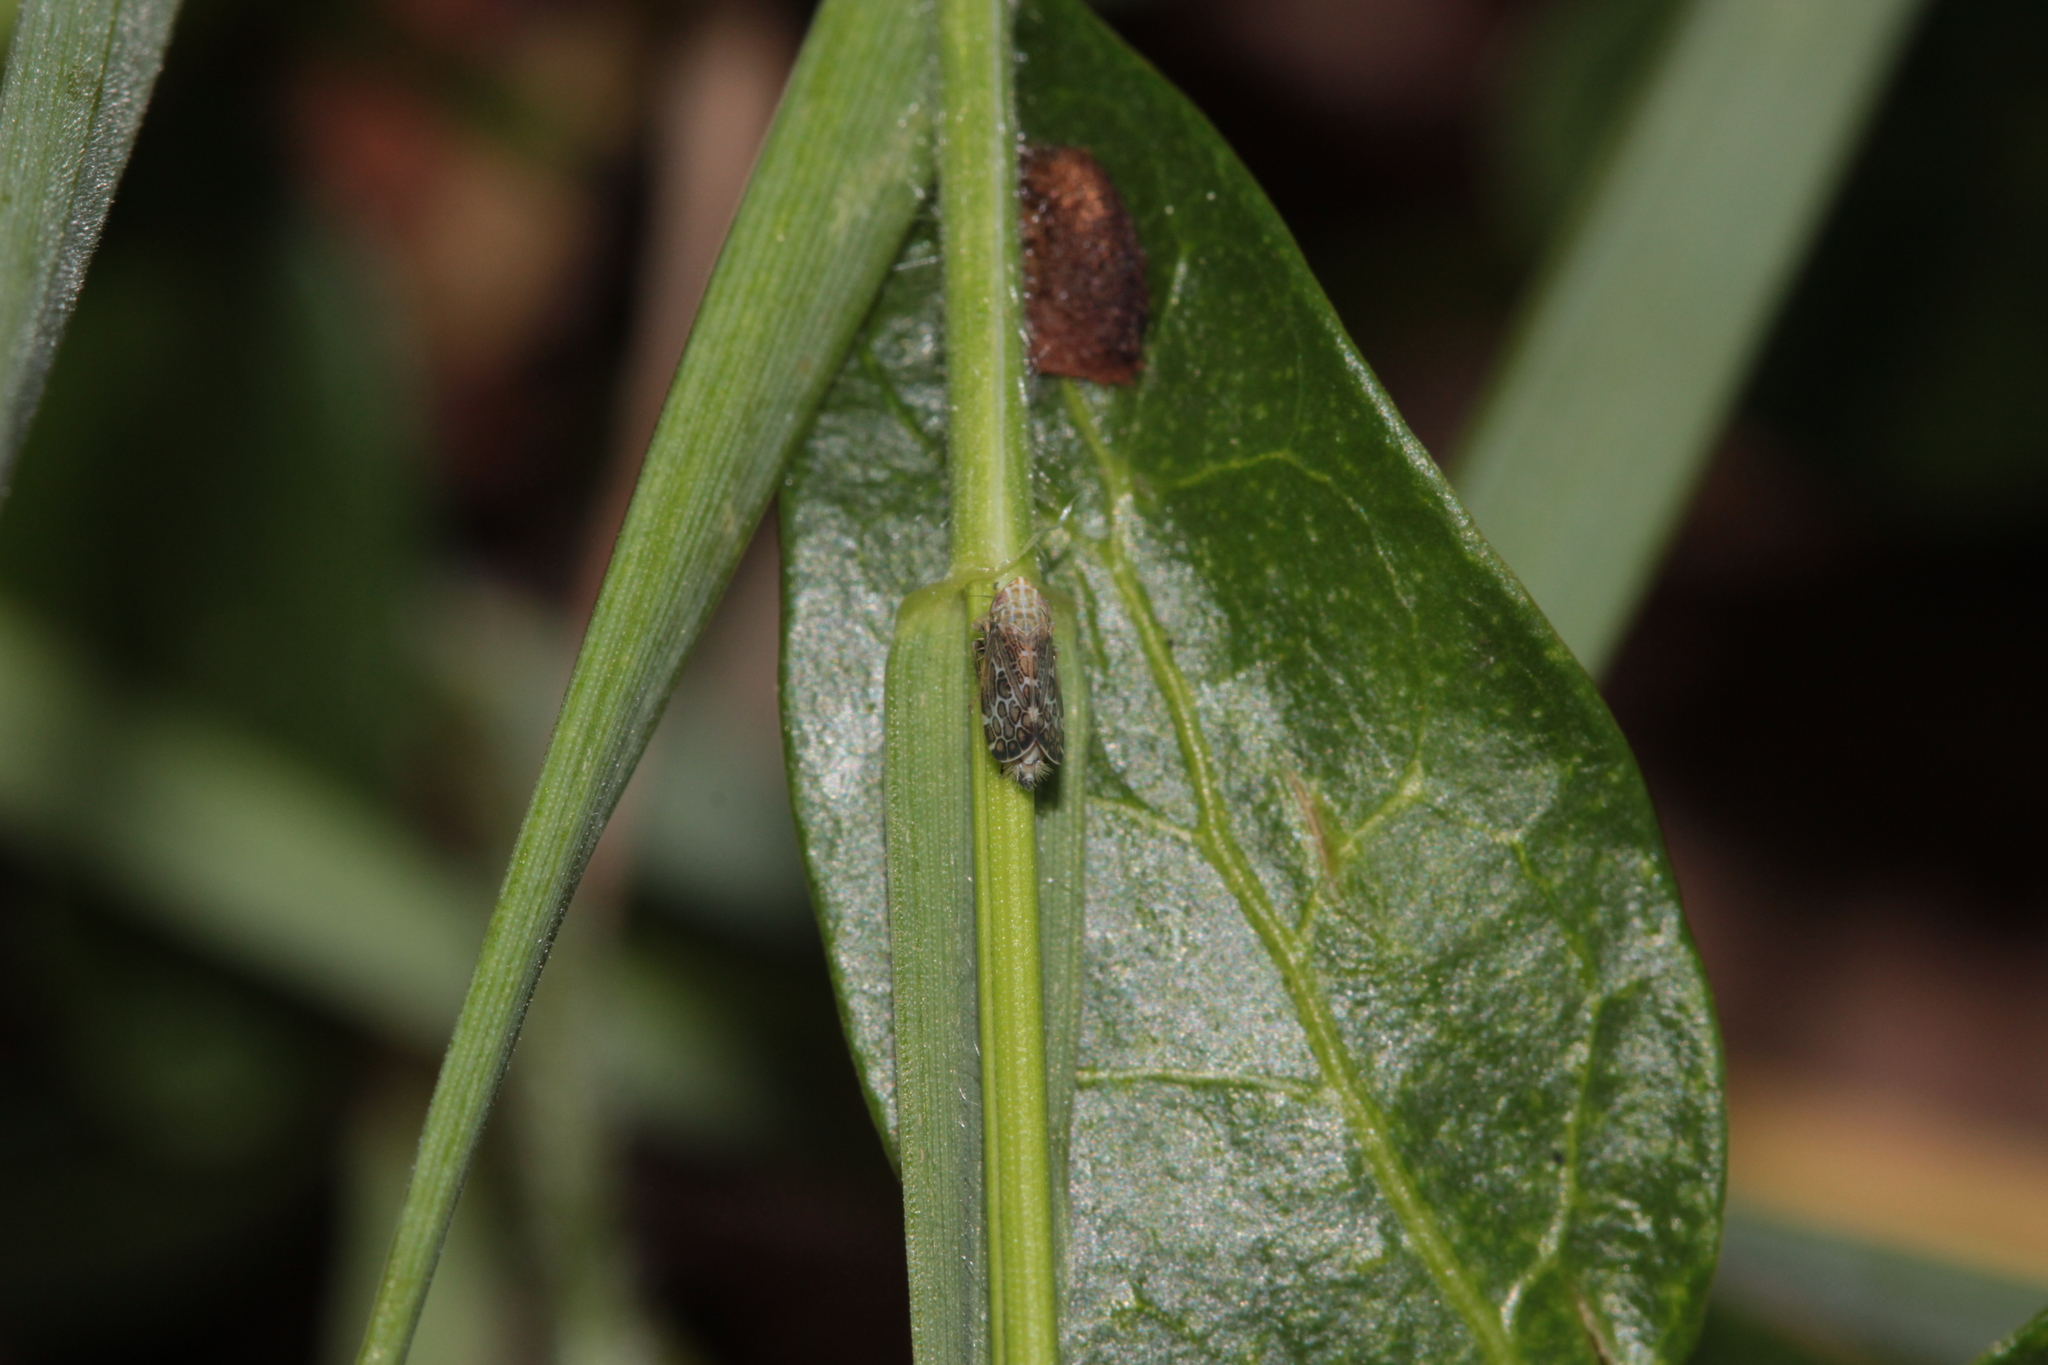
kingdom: Animalia
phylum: Arthropoda
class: Insecta
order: Hemiptera
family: Cicadellidae
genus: Errastunus
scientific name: Errastunus ocellaris
